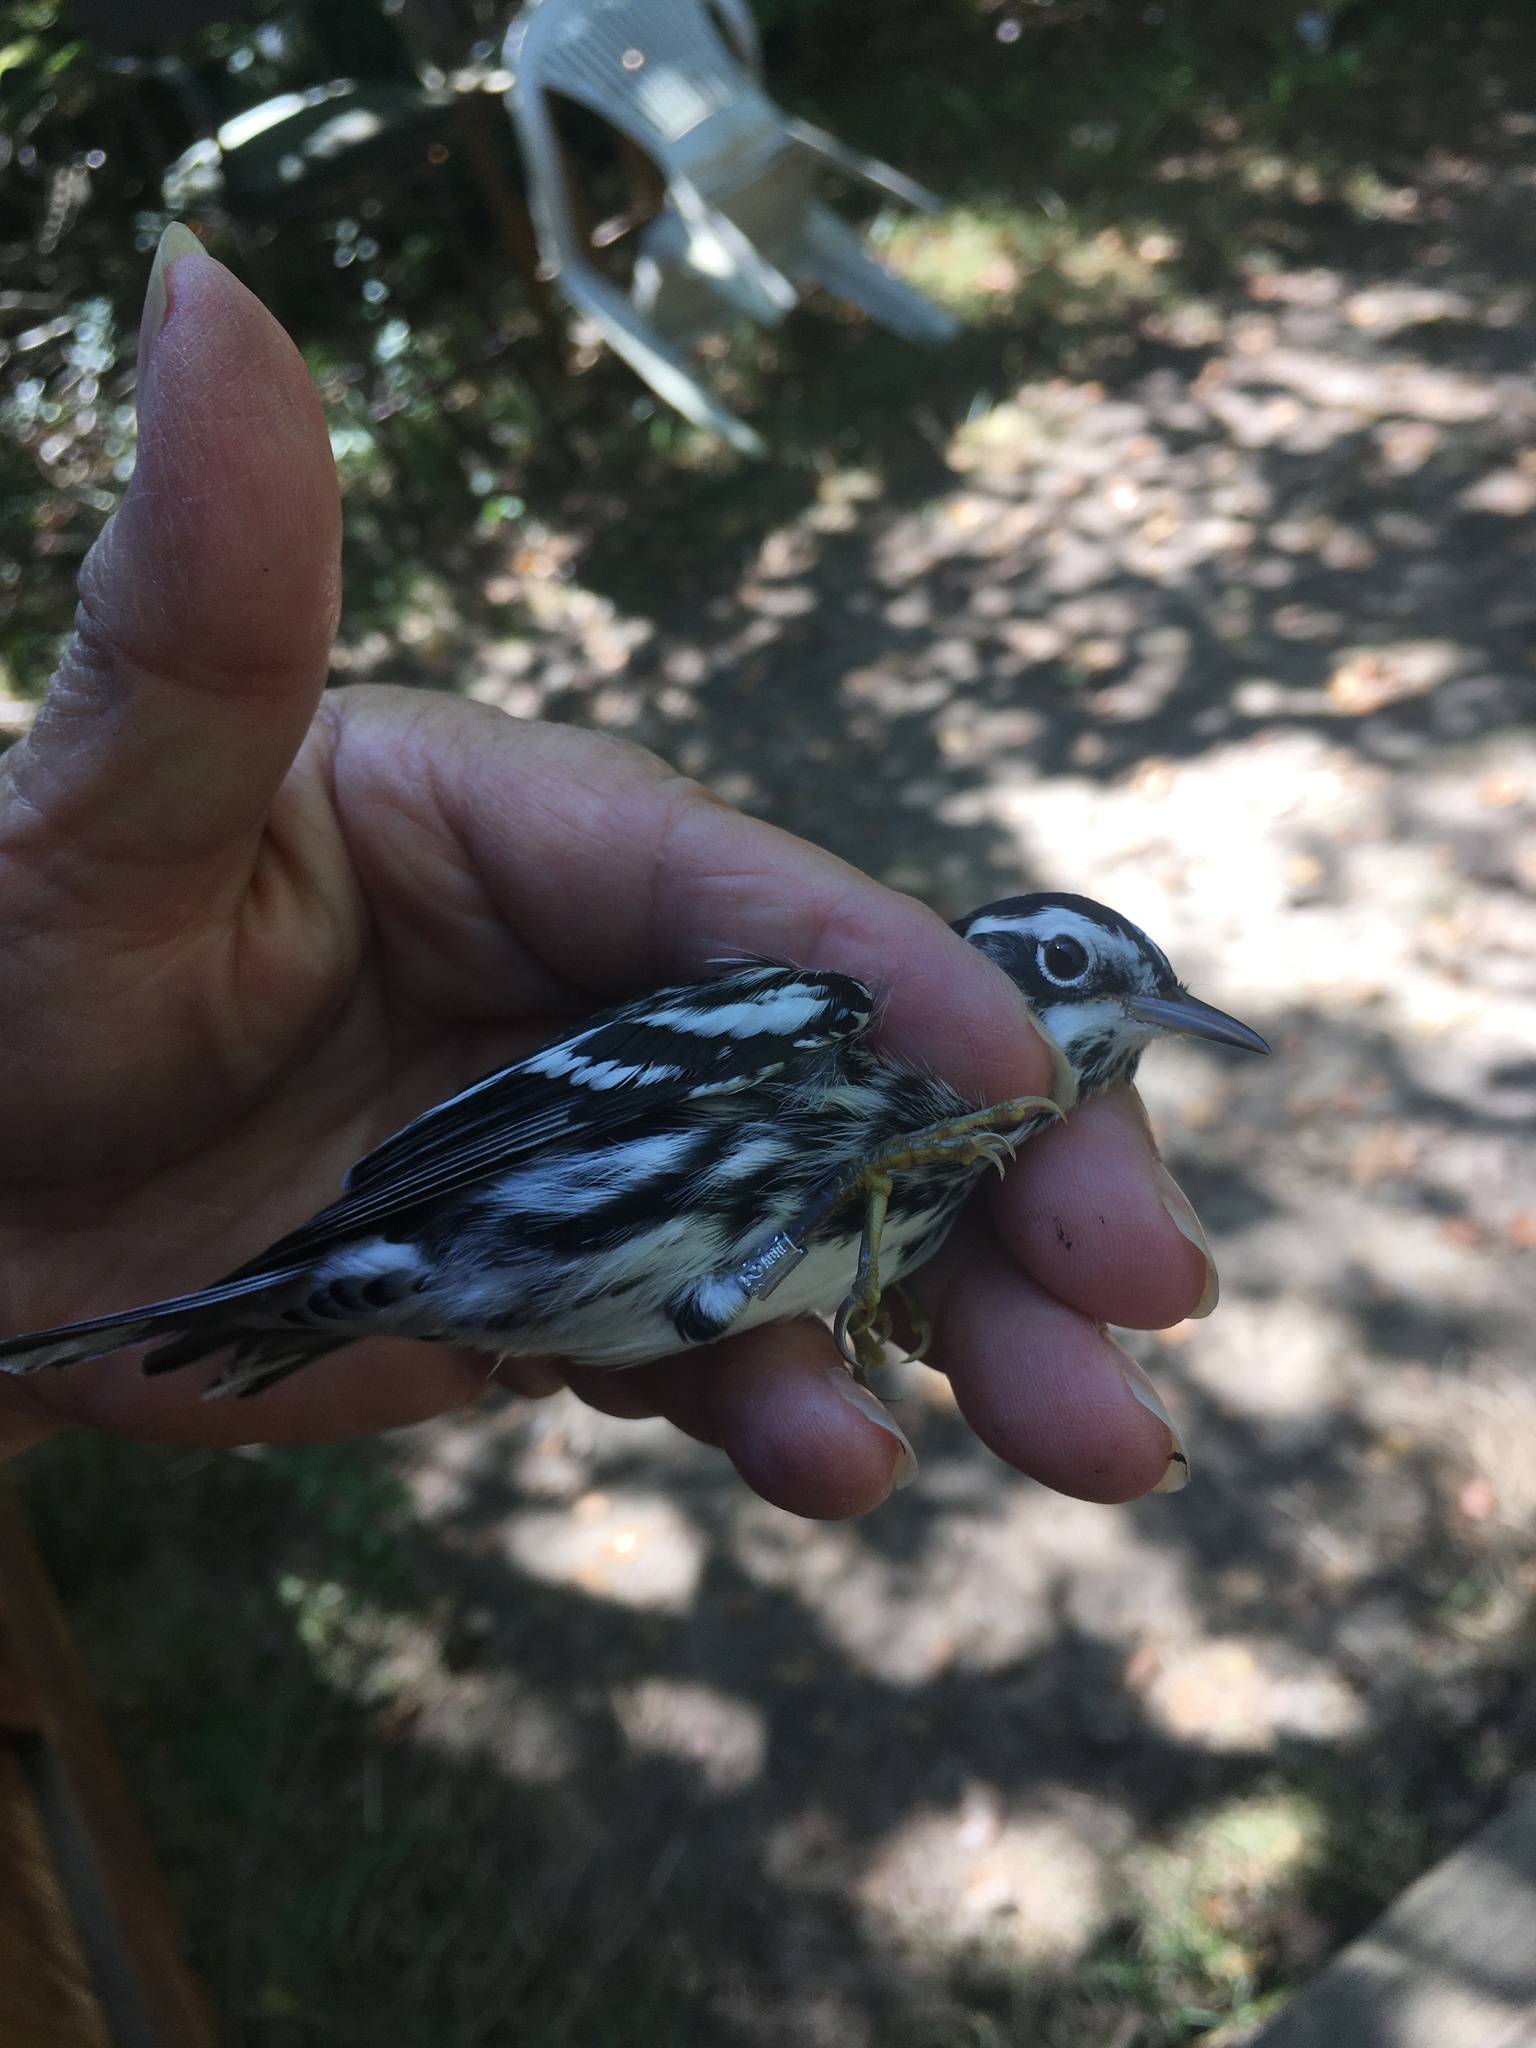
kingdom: Animalia
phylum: Chordata
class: Aves
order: Passeriformes
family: Parulidae
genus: Mniotilta
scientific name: Mniotilta varia
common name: Black-and-white warbler
